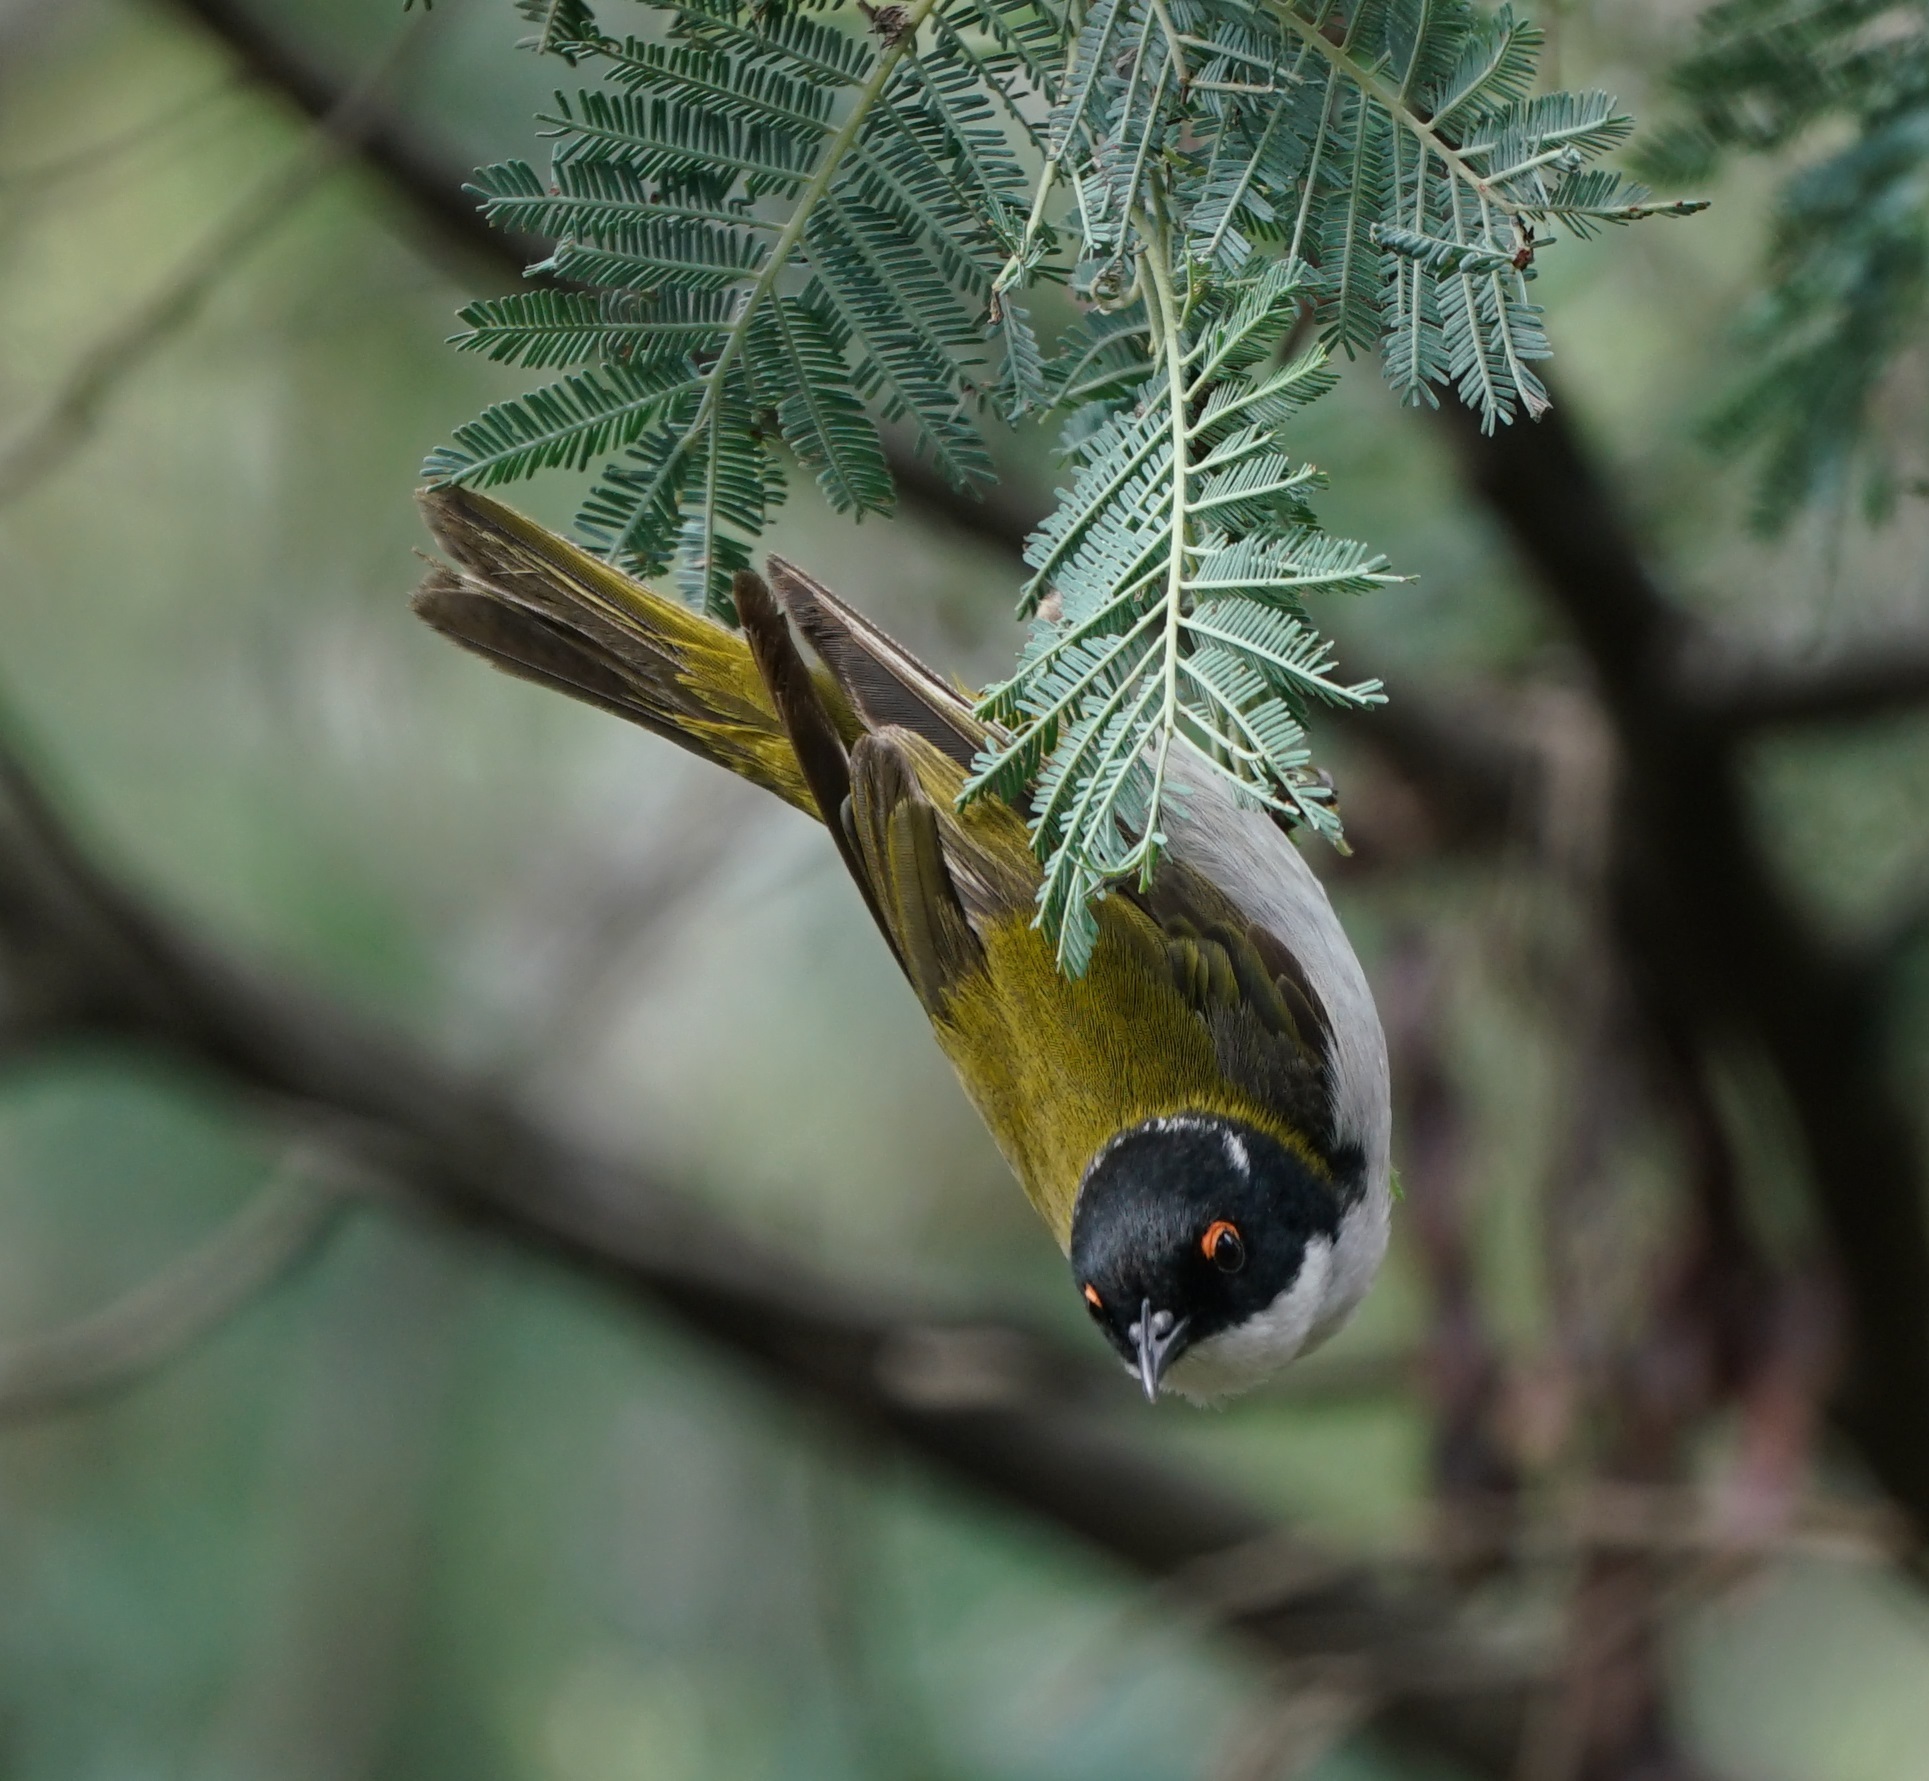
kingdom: Animalia
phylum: Chordata
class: Aves
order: Passeriformes
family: Meliphagidae
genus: Melithreptus
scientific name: Melithreptus lunatus
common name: White-naped honeyeater
